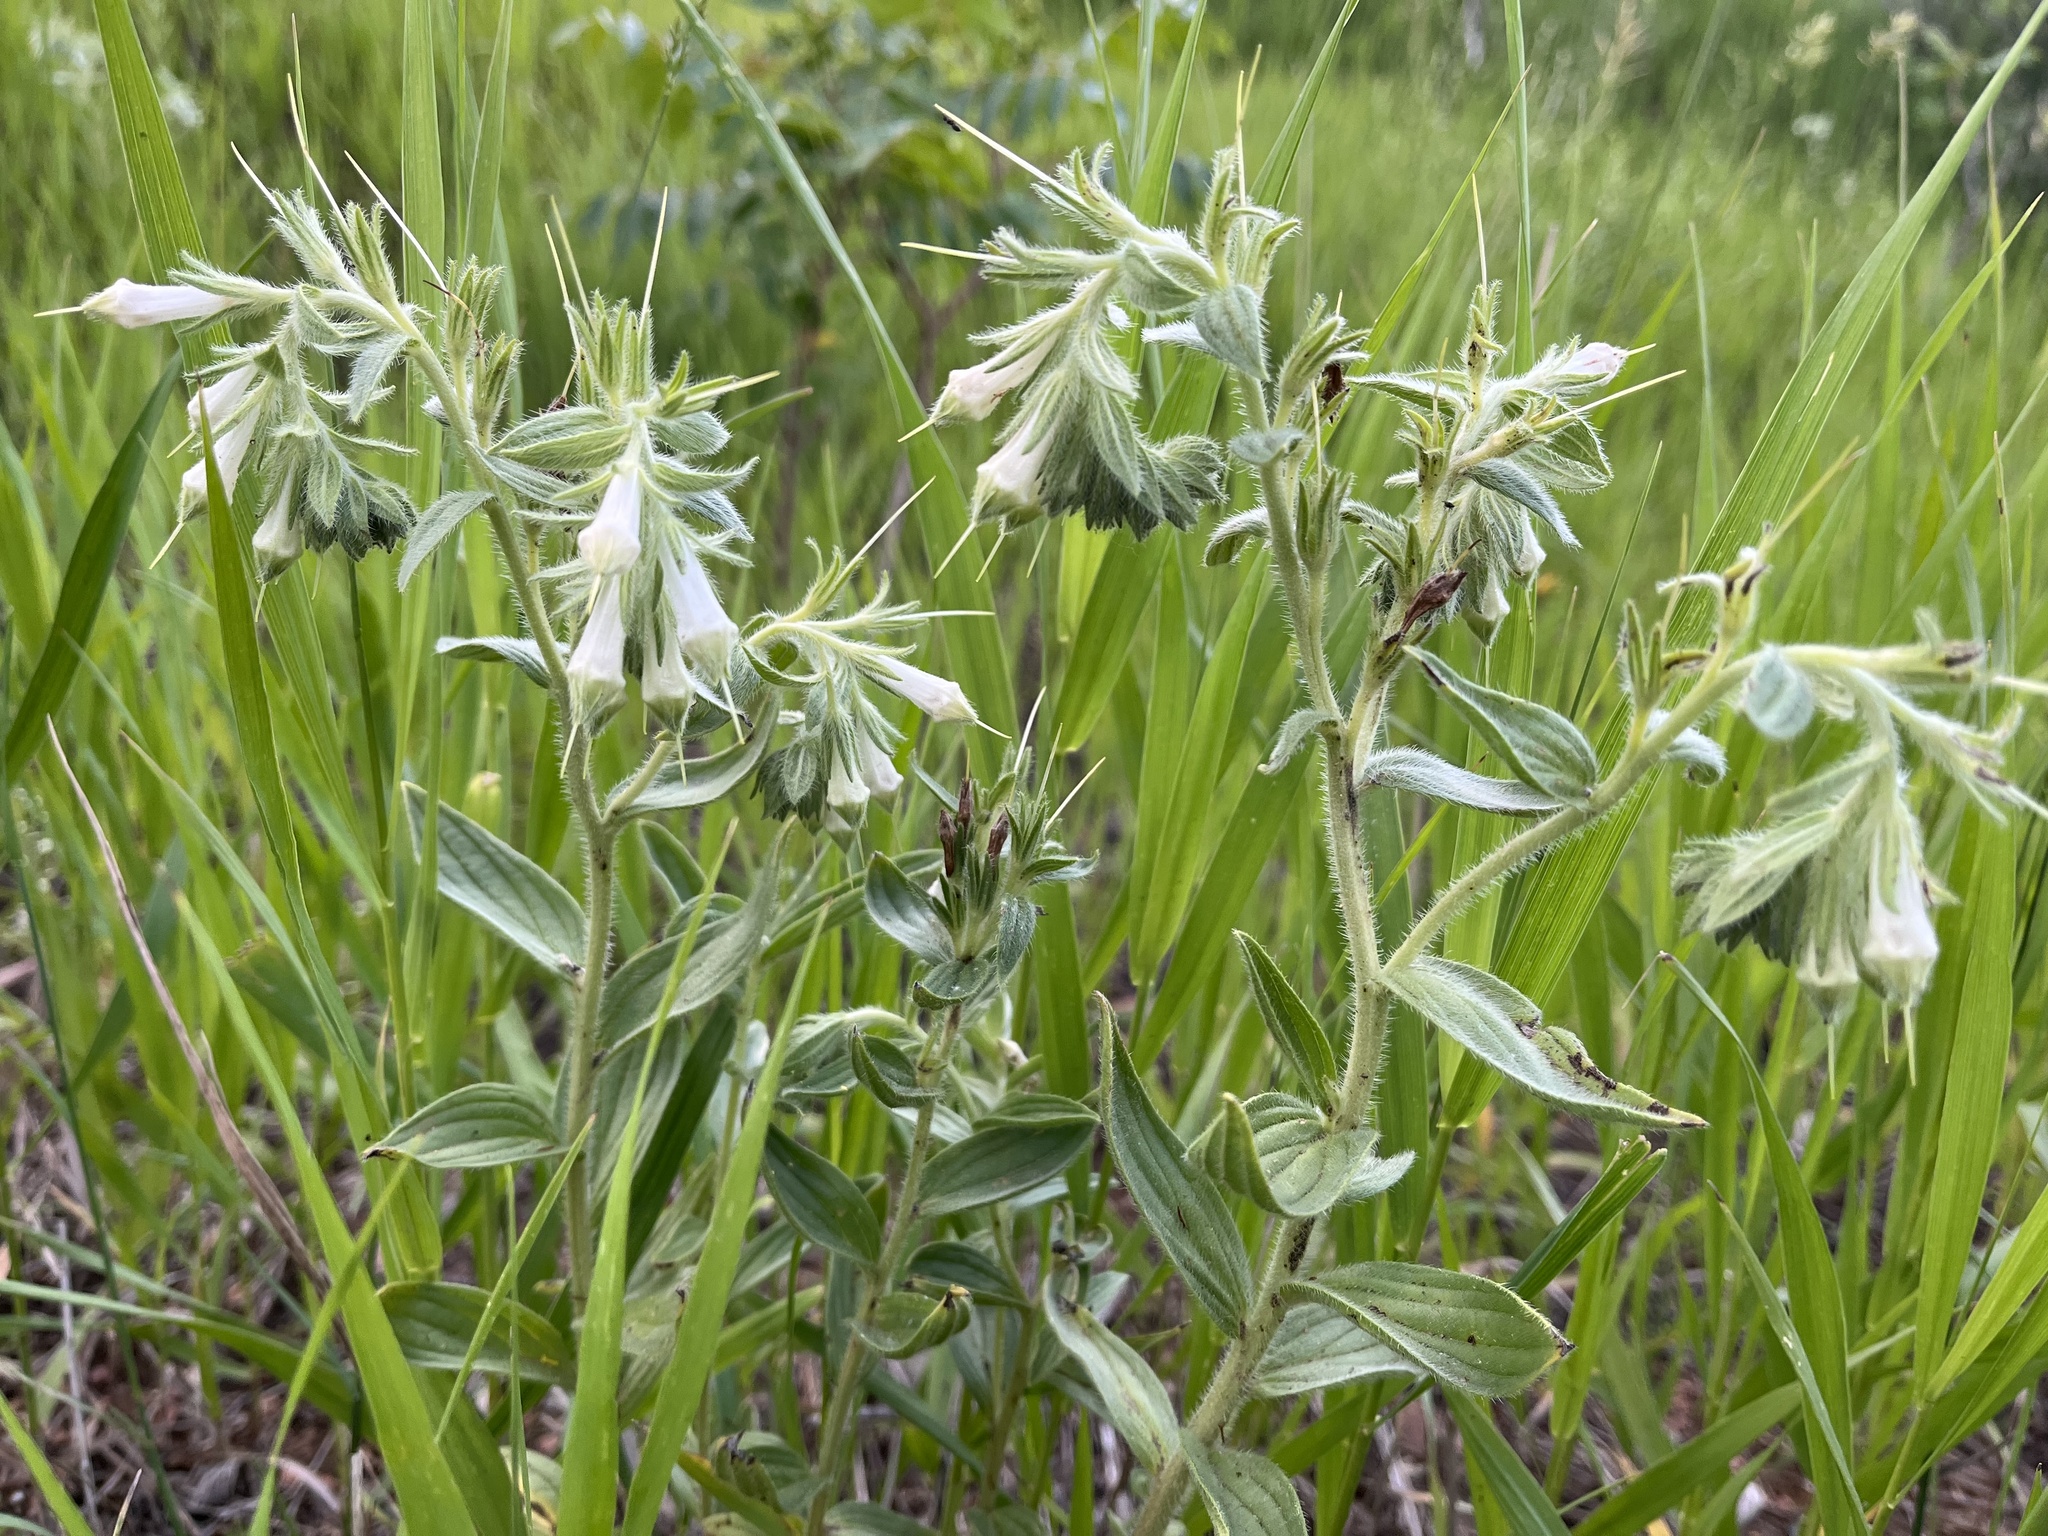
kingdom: Plantae
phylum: Tracheophyta
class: Magnoliopsida
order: Boraginales
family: Boraginaceae
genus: Lithospermum
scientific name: Lithospermum occidentale
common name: Western false gromwell
